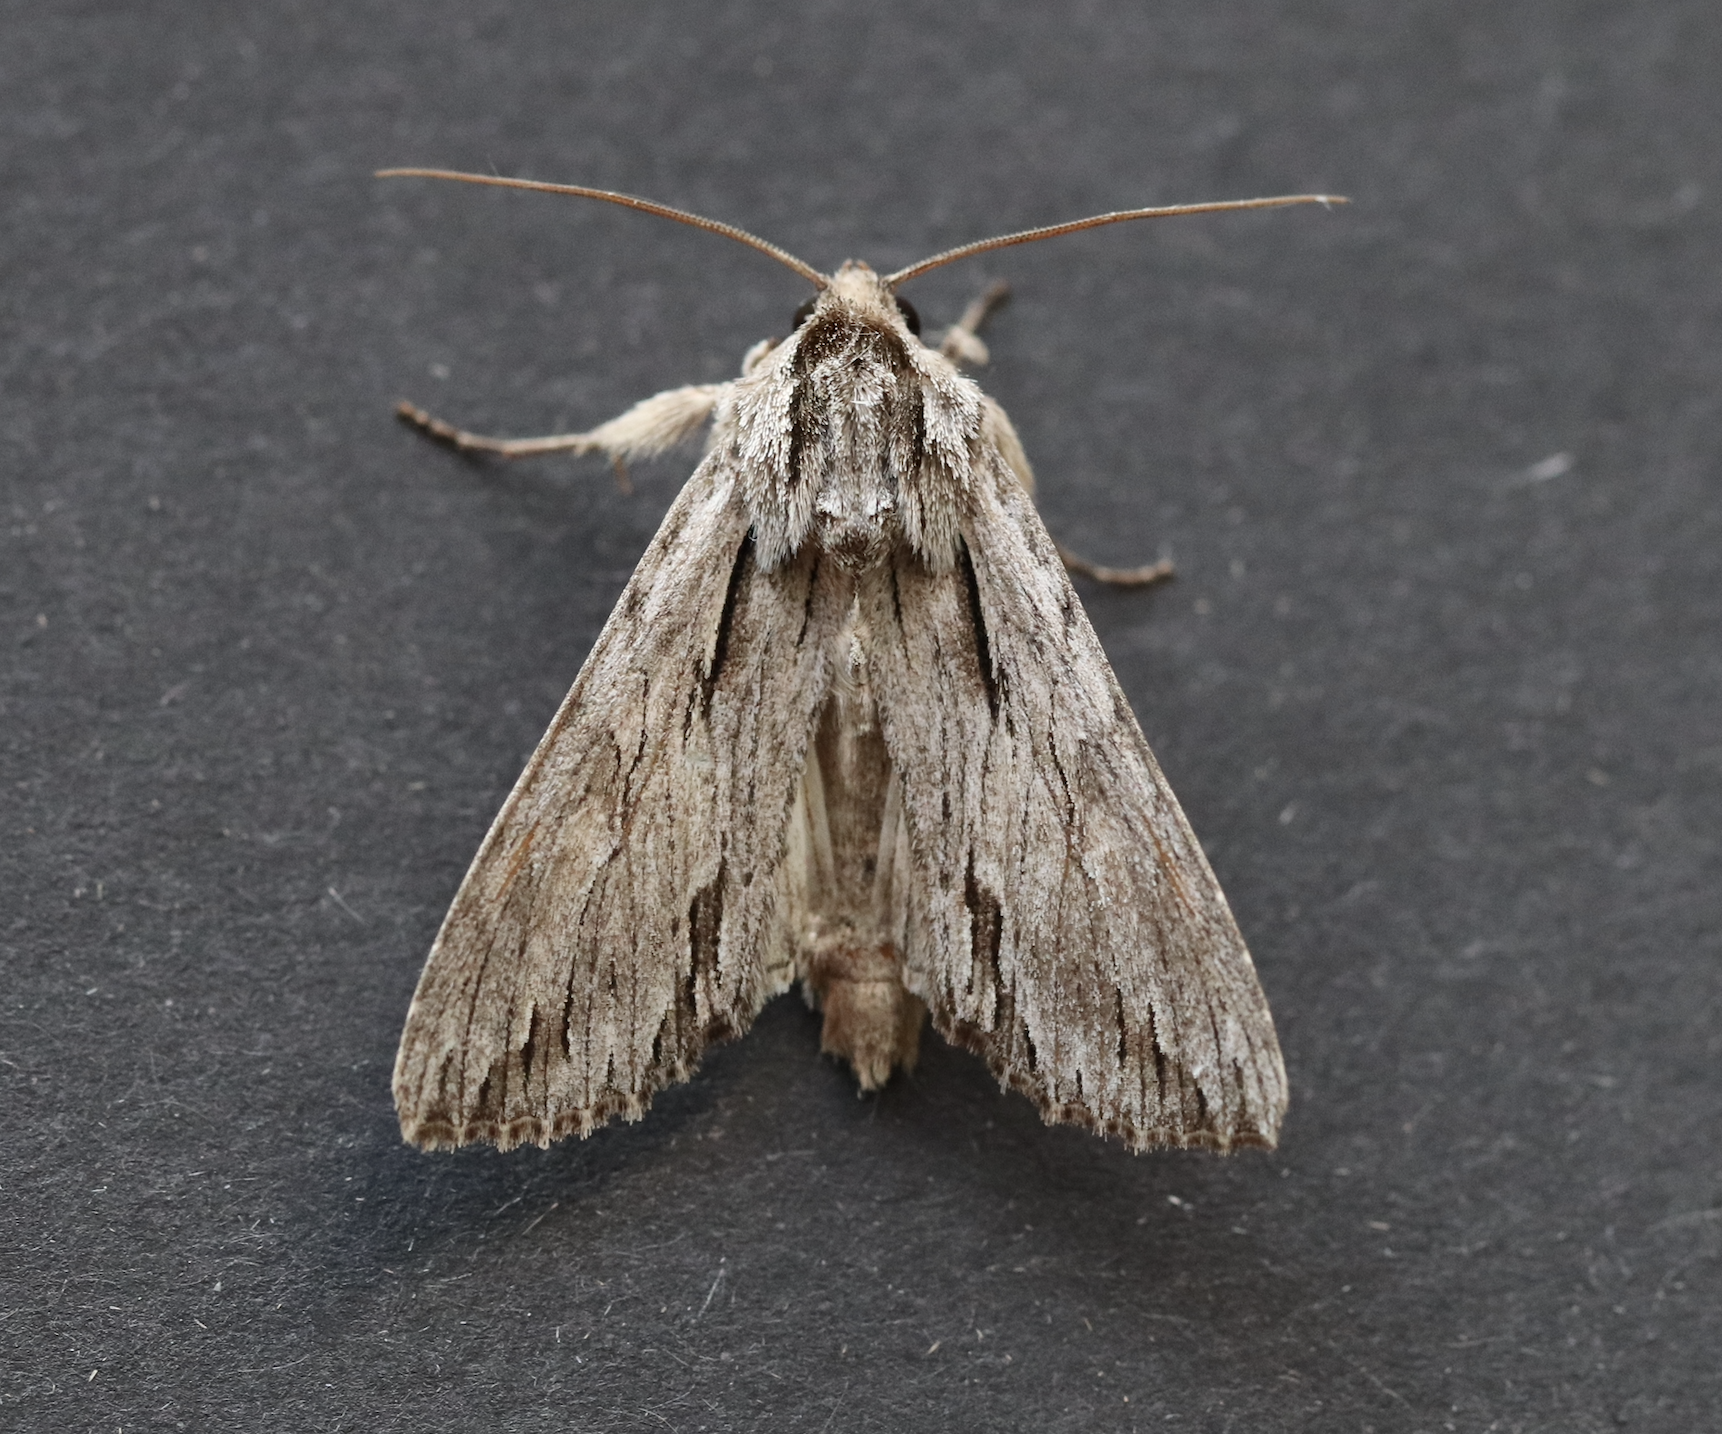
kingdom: Animalia
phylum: Arthropoda
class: Insecta
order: Lepidoptera
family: Noctuidae
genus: Auchmis
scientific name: Auchmis detersa
